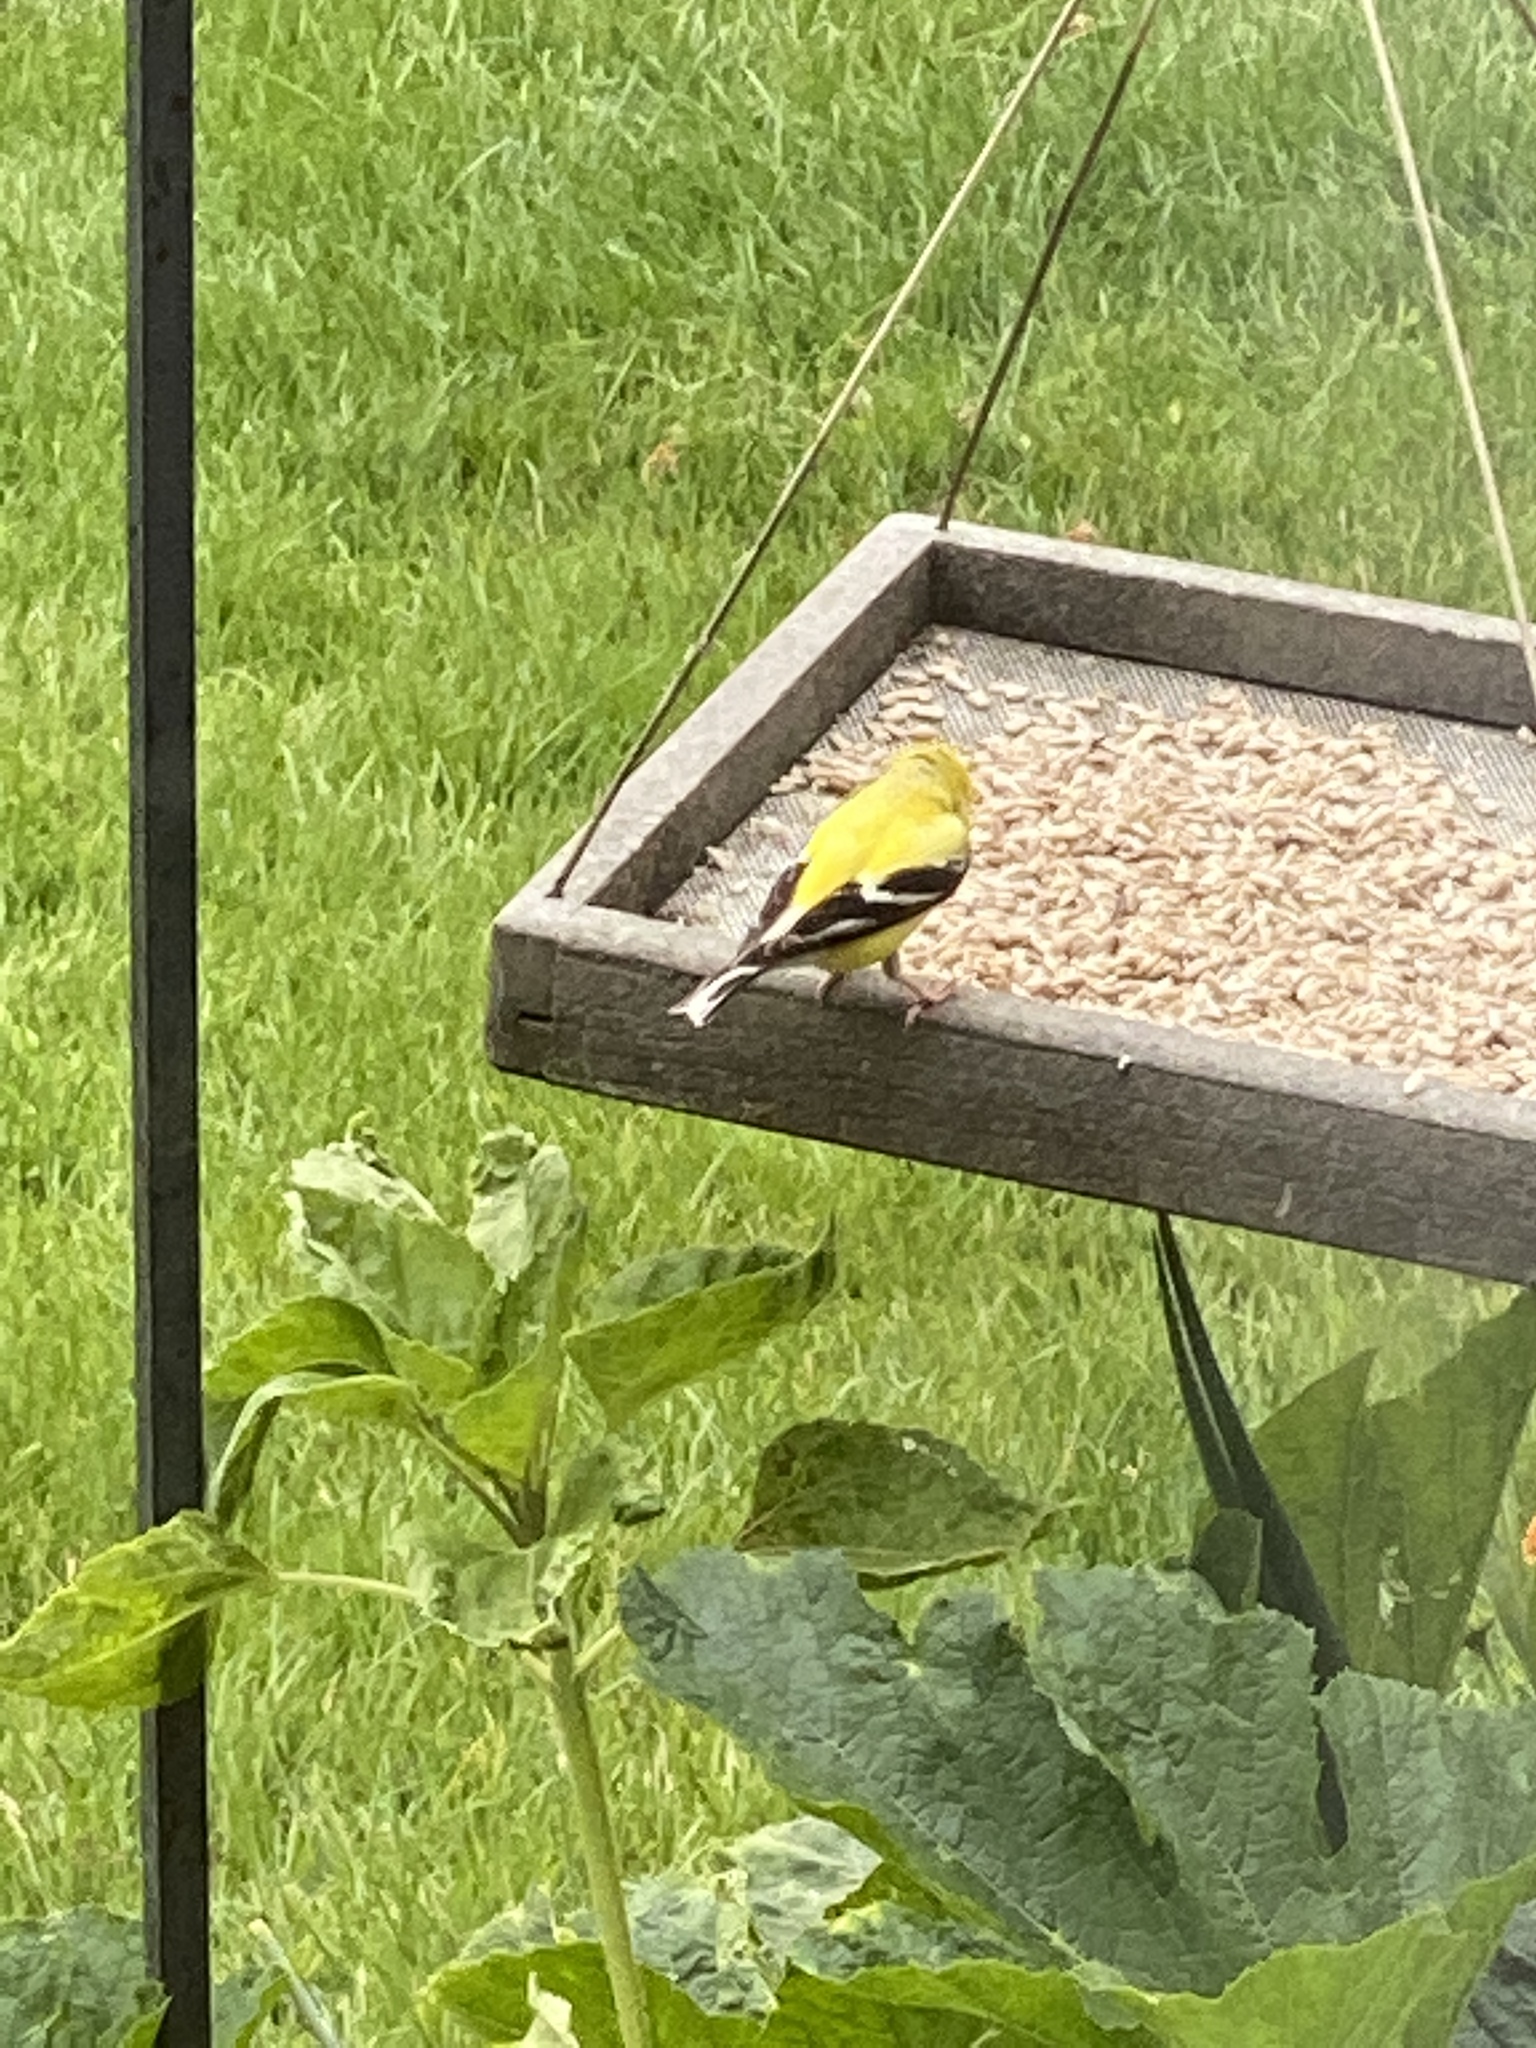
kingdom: Animalia
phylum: Chordata
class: Aves
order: Passeriformes
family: Fringillidae
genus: Spinus
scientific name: Spinus tristis
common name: American goldfinch
